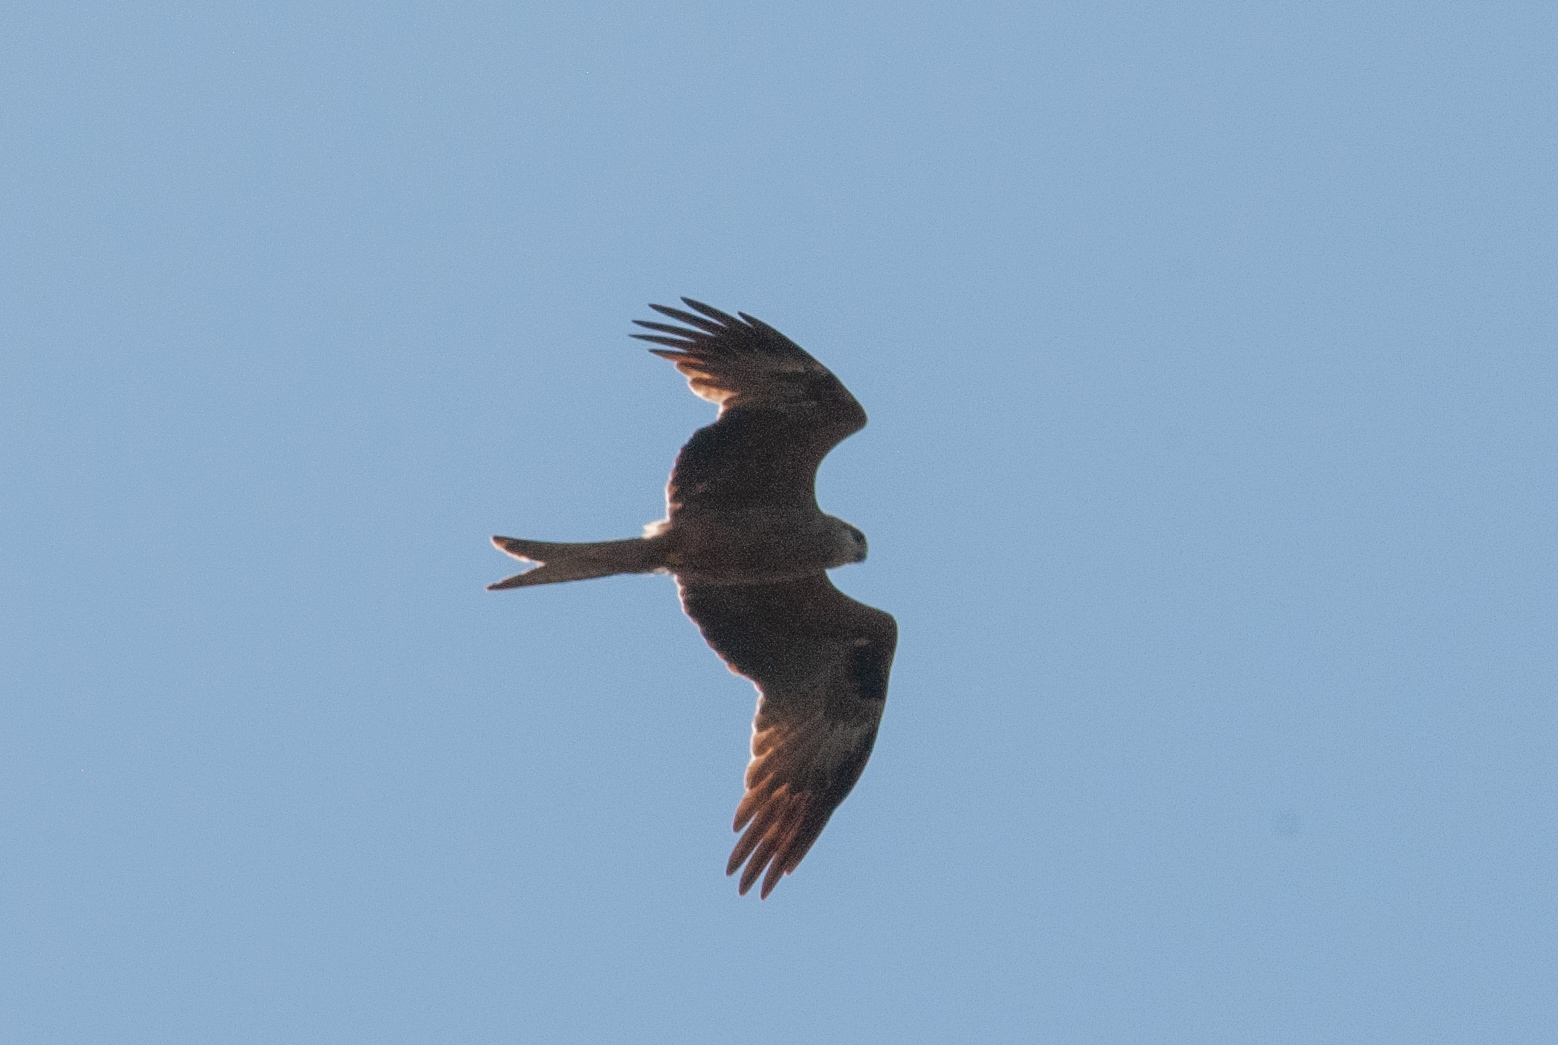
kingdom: Animalia
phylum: Chordata
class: Aves
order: Accipitriformes
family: Accipitridae
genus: Milvus
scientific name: Milvus migrans
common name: Black kite
